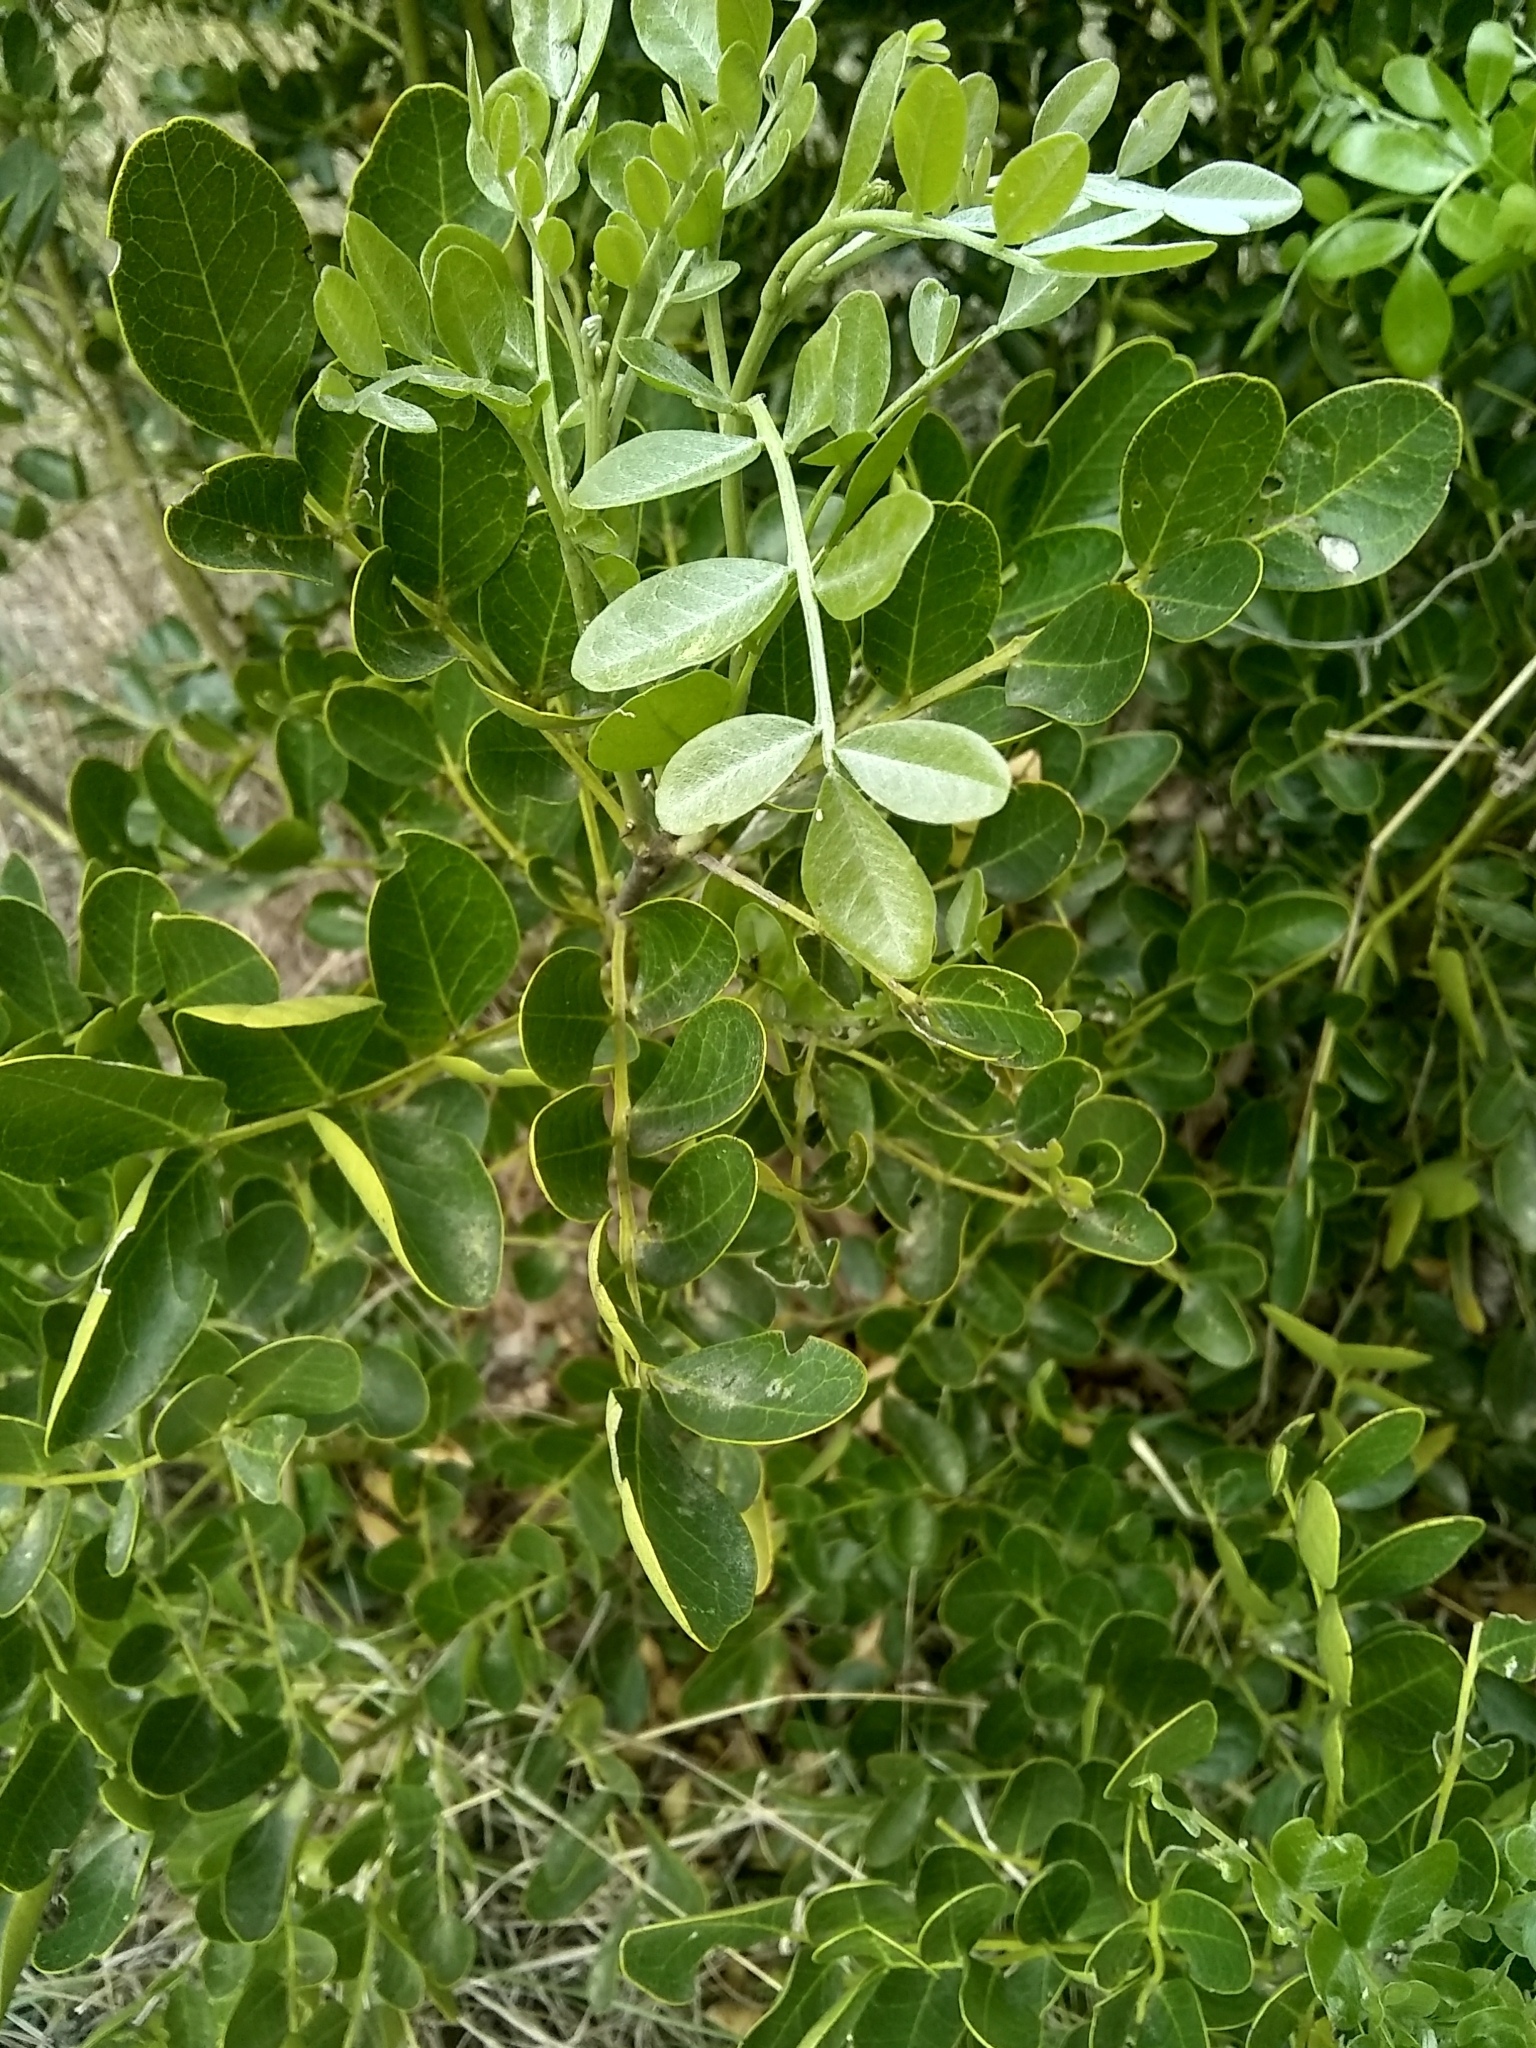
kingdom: Plantae
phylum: Tracheophyta
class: Magnoliopsida
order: Fabales
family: Fabaceae
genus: Dermatophyllum
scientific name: Dermatophyllum secundiflorum
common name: Texas-mountain-laurel
